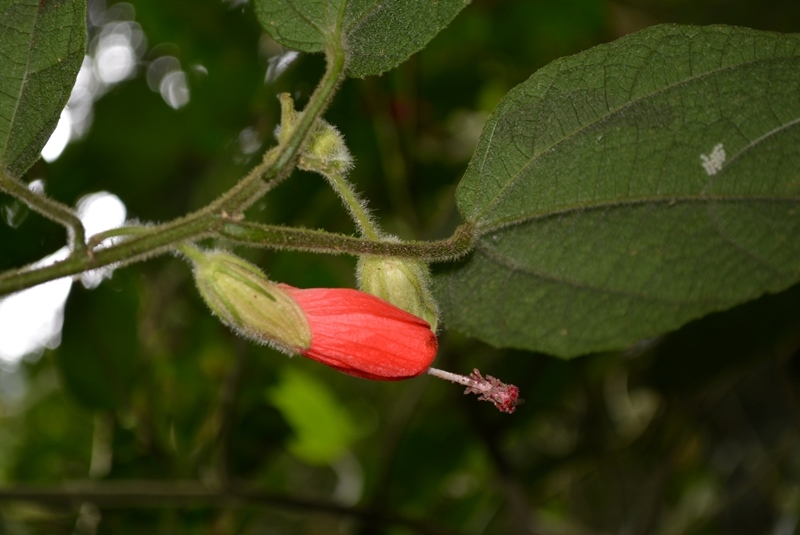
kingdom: Plantae
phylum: Tracheophyta
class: Magnoliopsida
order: Malvales
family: Malvaceae
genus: Malvaviscus
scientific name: Malvaviscus arboreus
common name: Wax mallow
